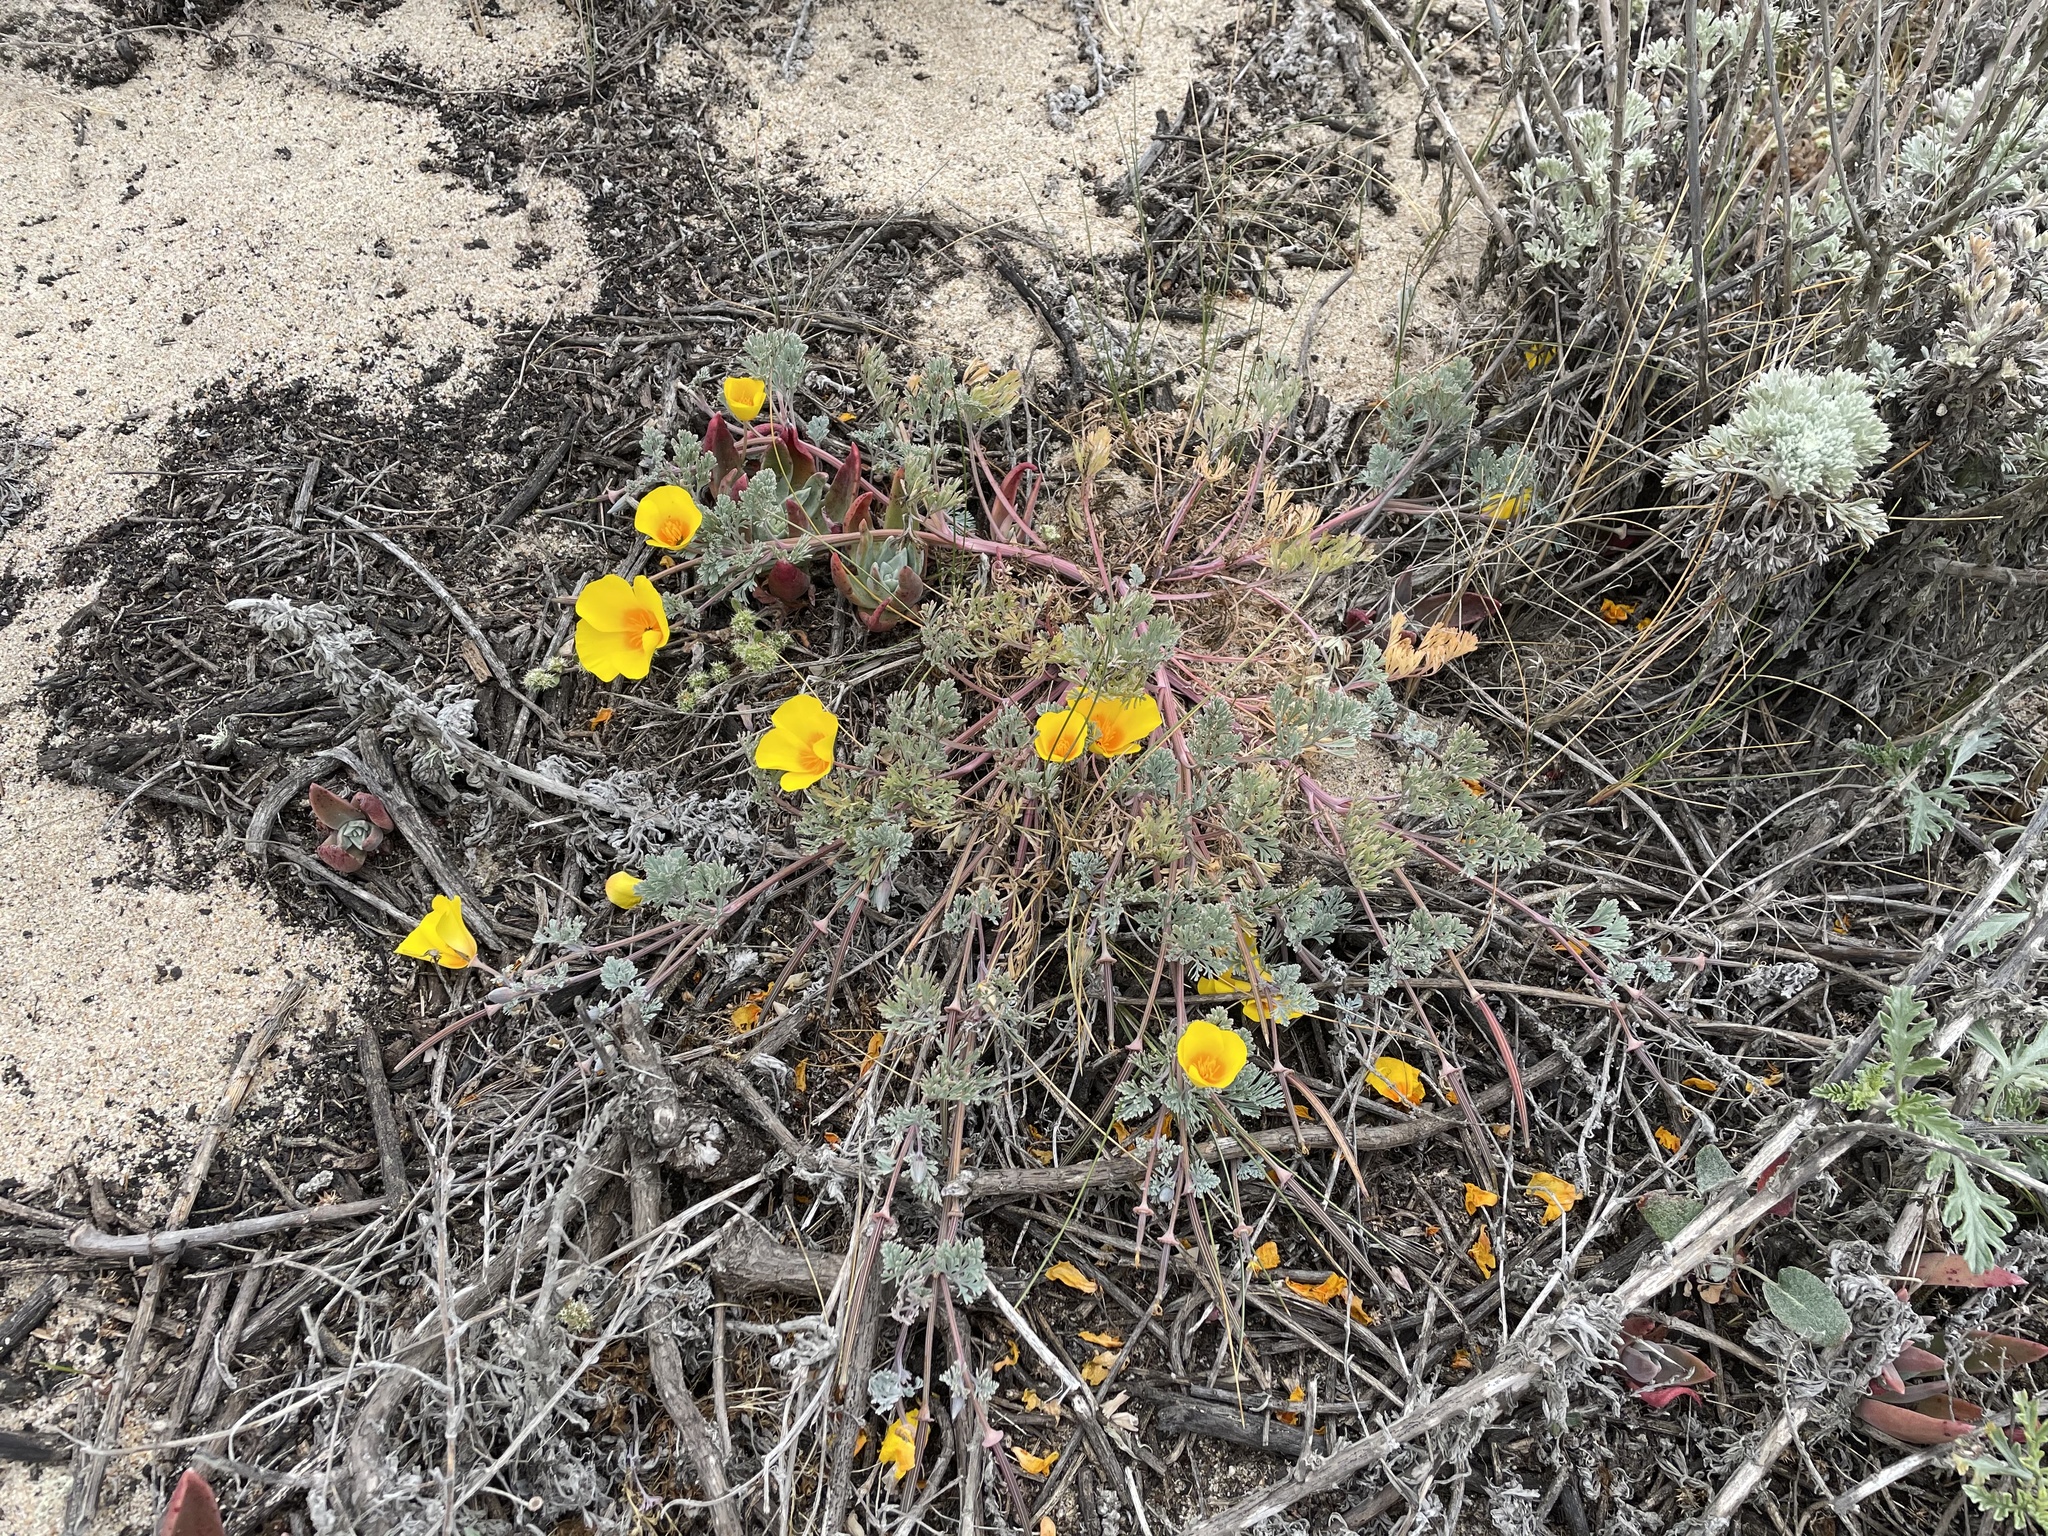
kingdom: Plantae
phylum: Tracheophyta
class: Magnoliopsida
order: Ranunculales
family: Papaveraceae
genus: Eschscholzia
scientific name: Eschscholzia californica
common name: California poppy
